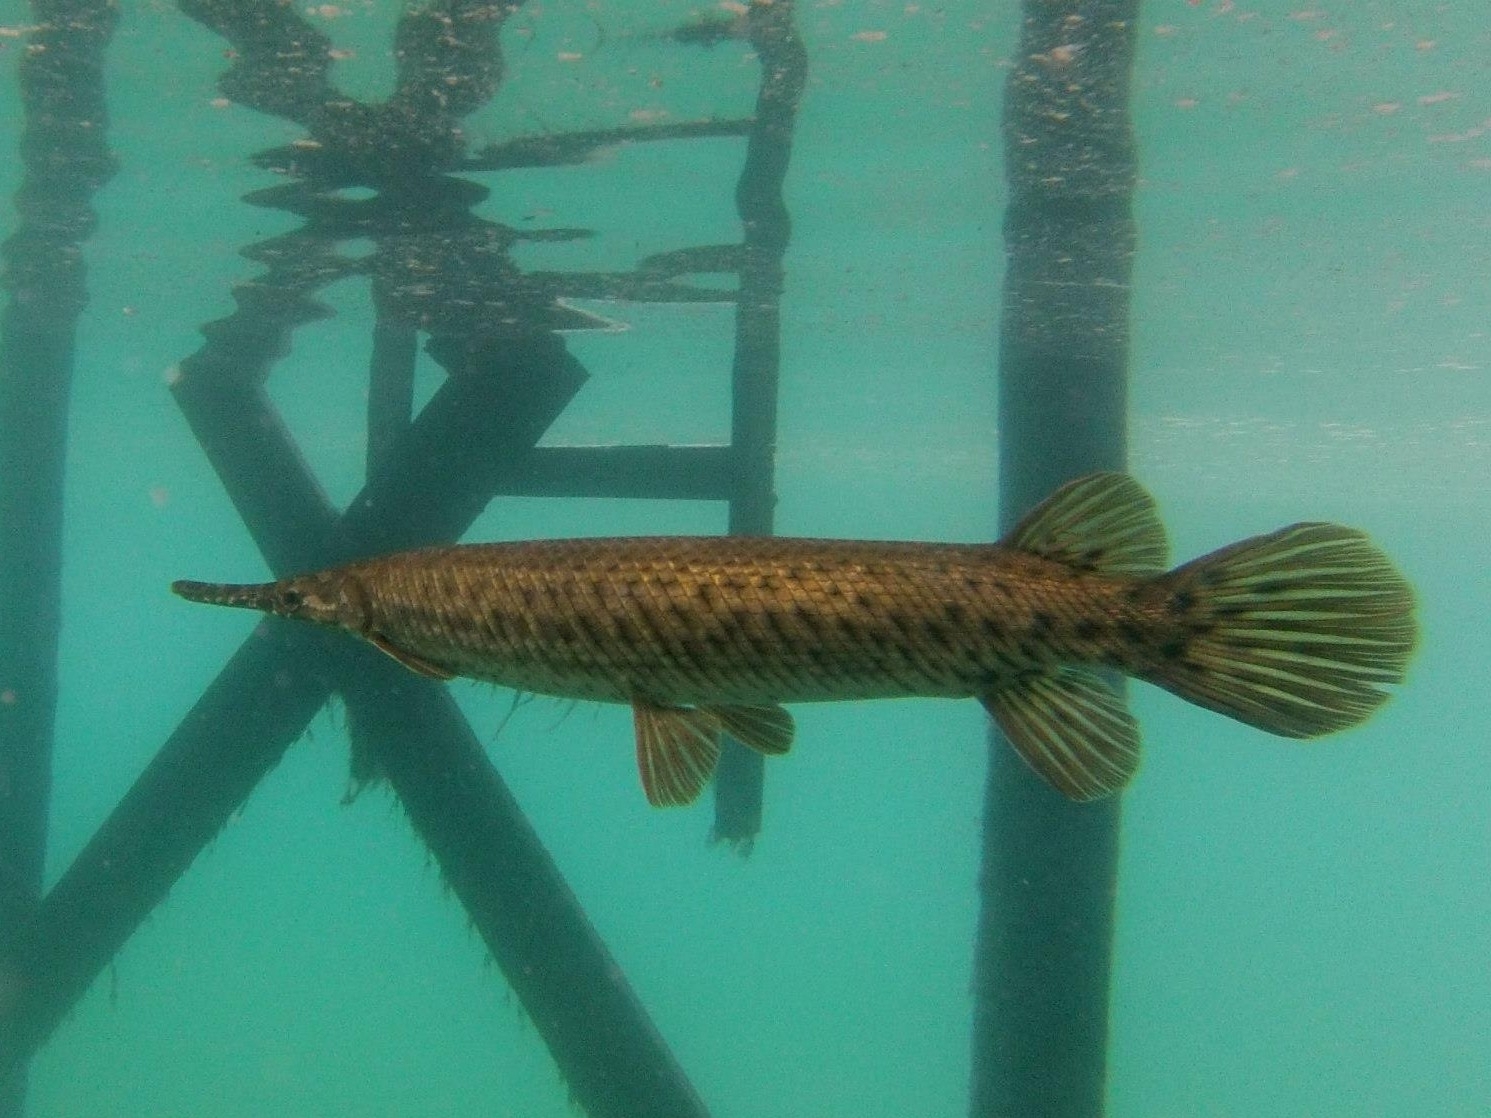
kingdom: Animalia
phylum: Chordata
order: Lepisosteiformes
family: Lepisosteidae
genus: Lepisosteus
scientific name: Lepisosteus platyrhincus
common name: Florida gar
